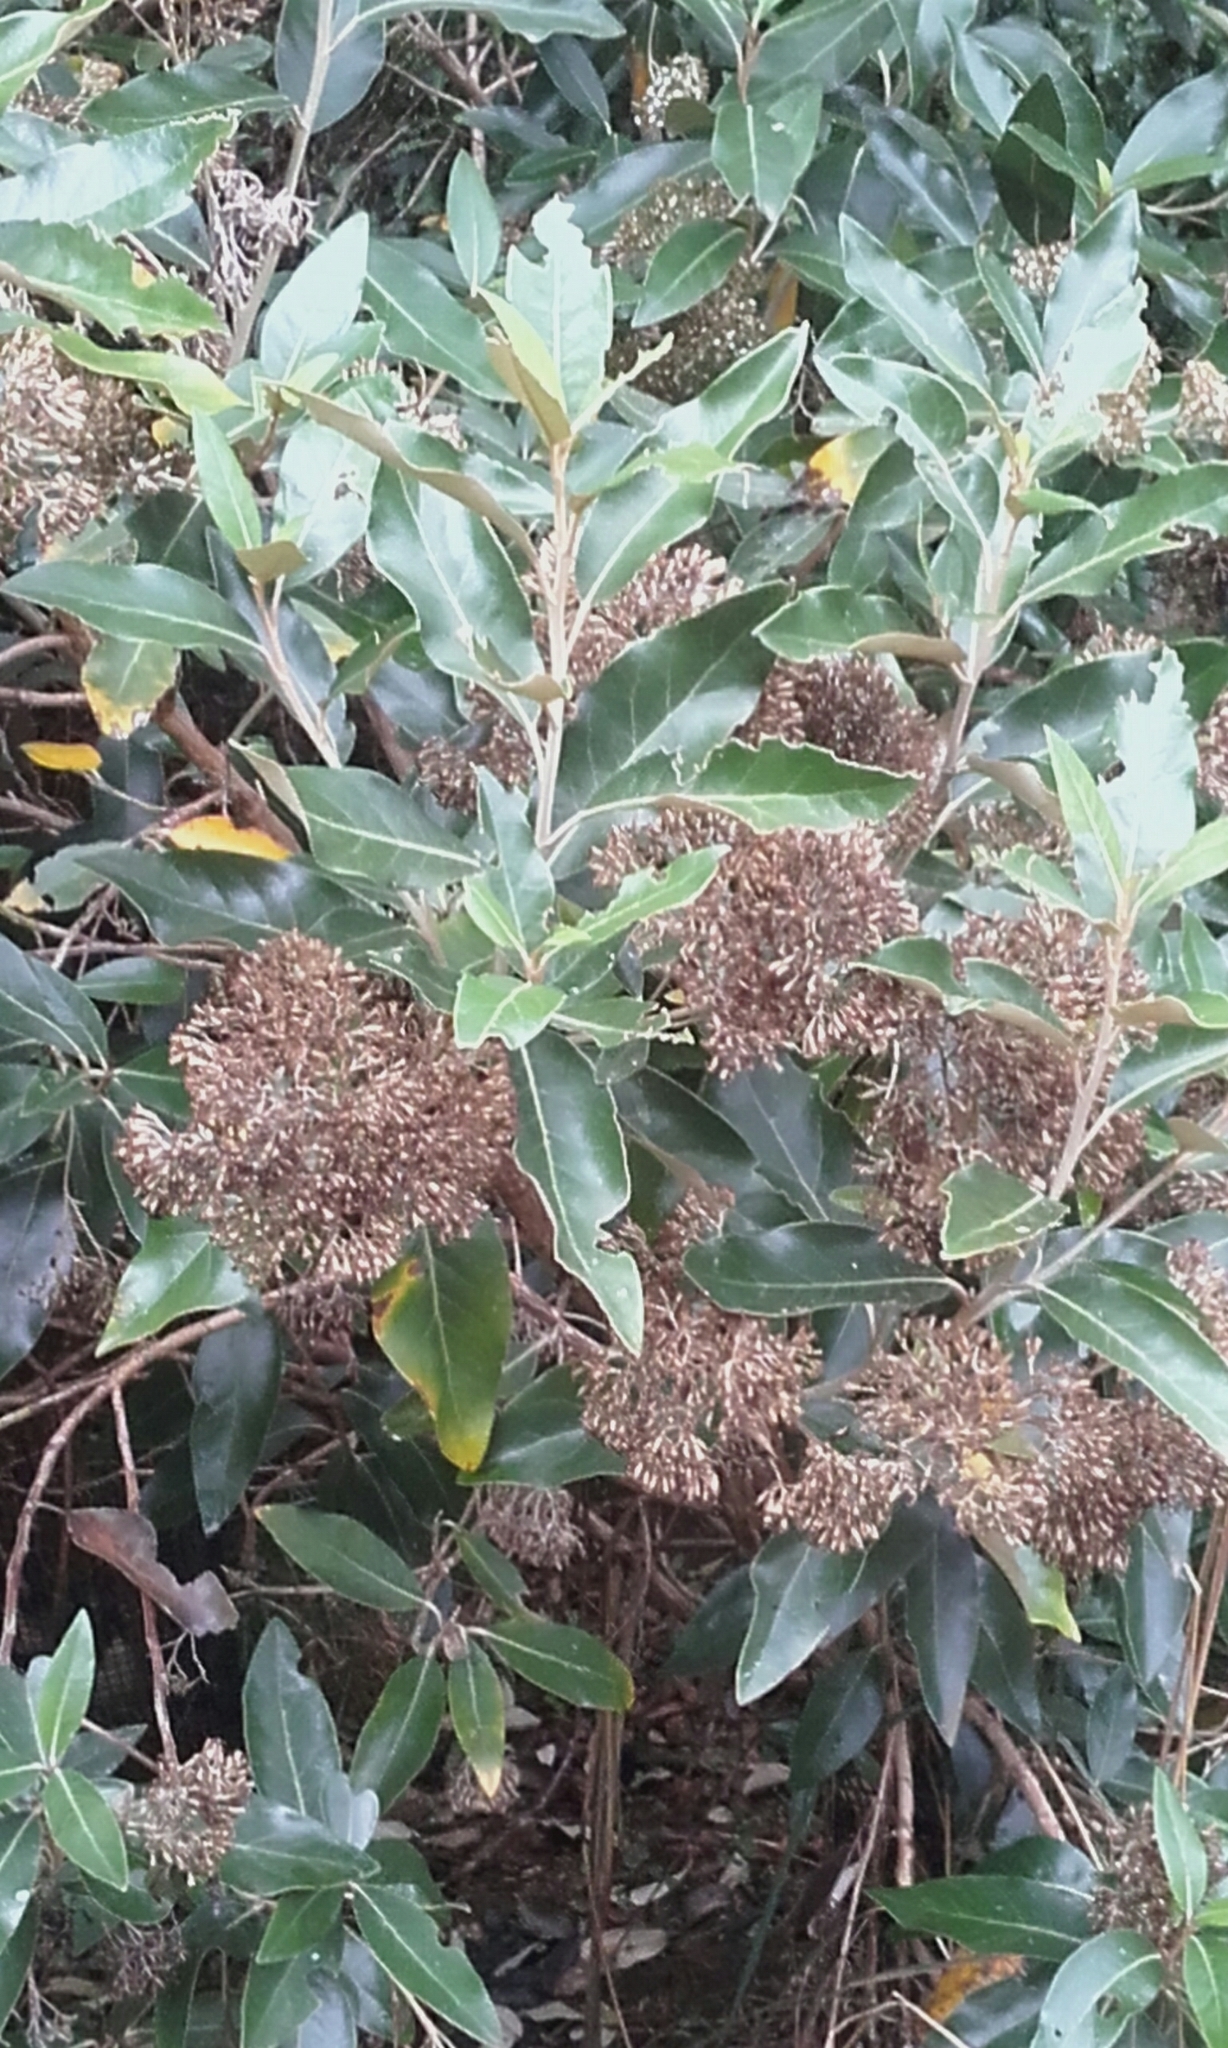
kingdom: Plantae
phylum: Tracheophyta
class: Magnoliopsida
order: Asterales
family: Asteraceae
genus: Olearia
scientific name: Olearia avicenniifolia
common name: Mangrove-leaf daisybush
